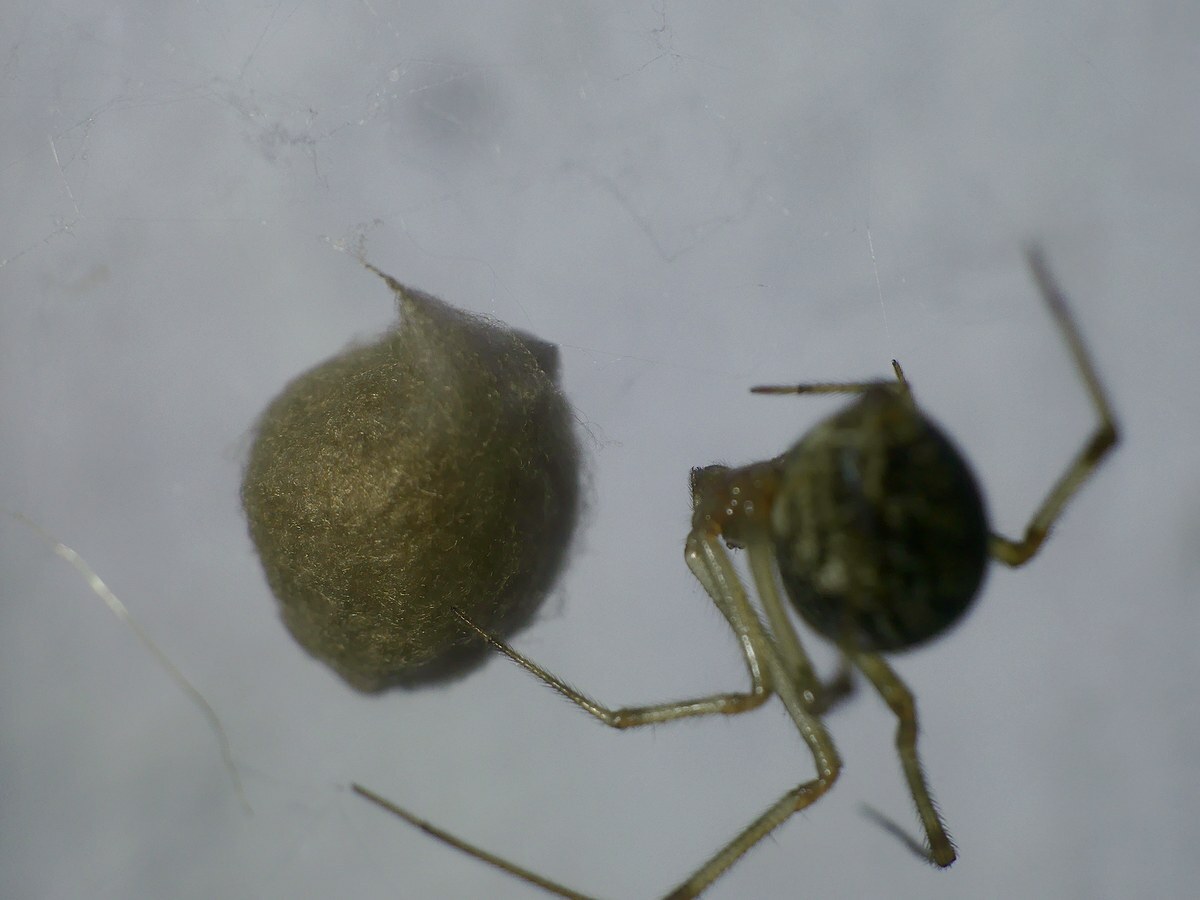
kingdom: Animalia
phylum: Arthropoda
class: Arachnida
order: Araneae
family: Theridiidae
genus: Parasteatoda
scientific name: Parasteatoda tepidariorum
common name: Common house spider
